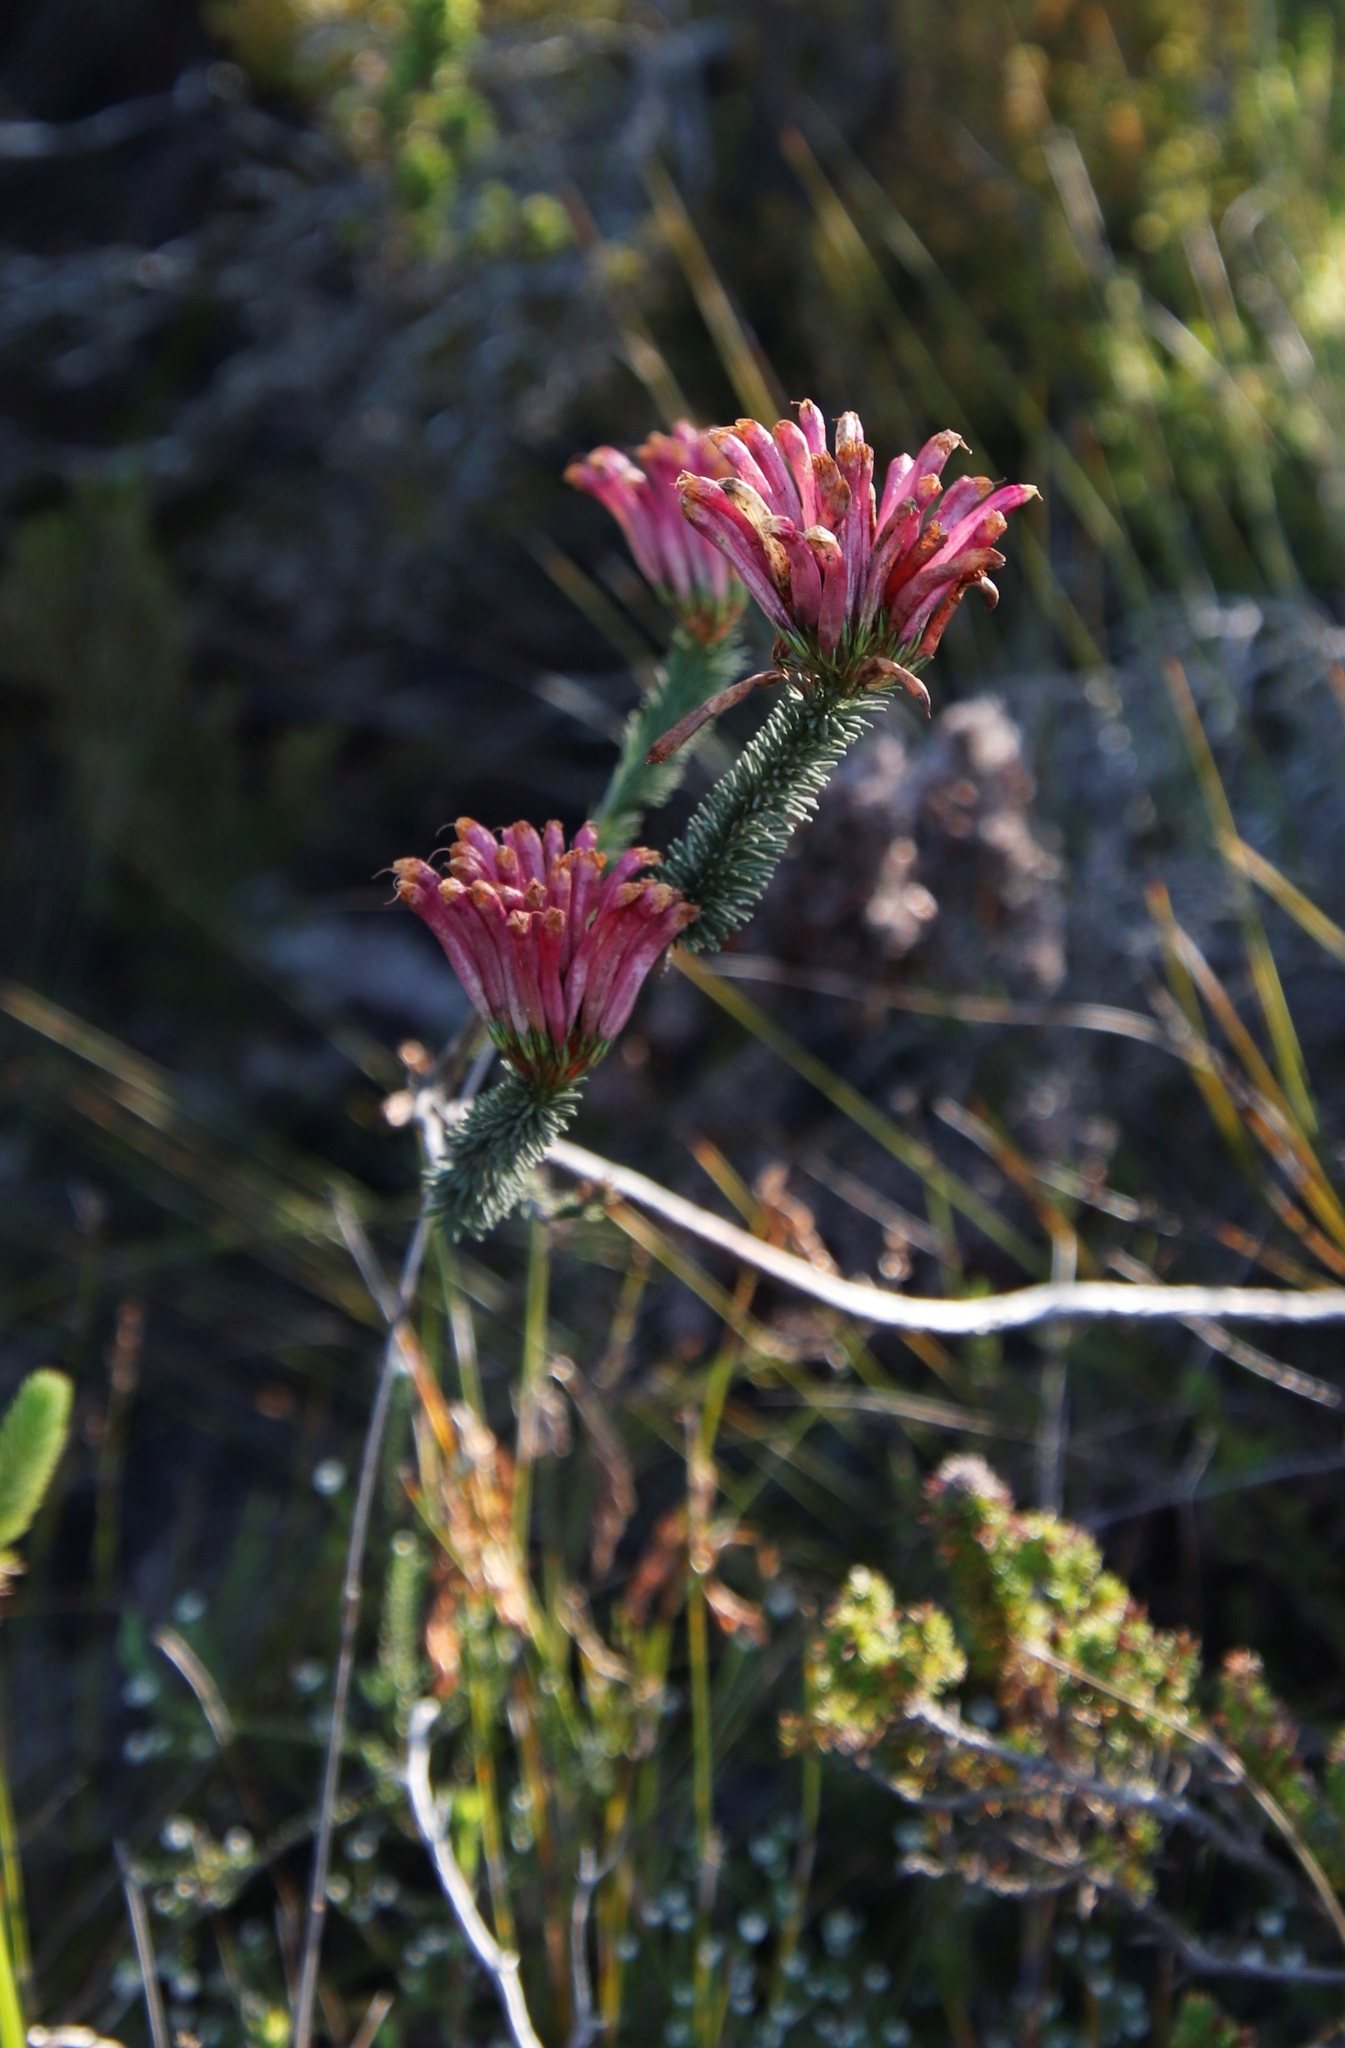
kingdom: Plantae
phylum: Tracheophyta
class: Magnoliopsida
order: Ericales
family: Ericaceae
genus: Erica
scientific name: Erica fascicularis
